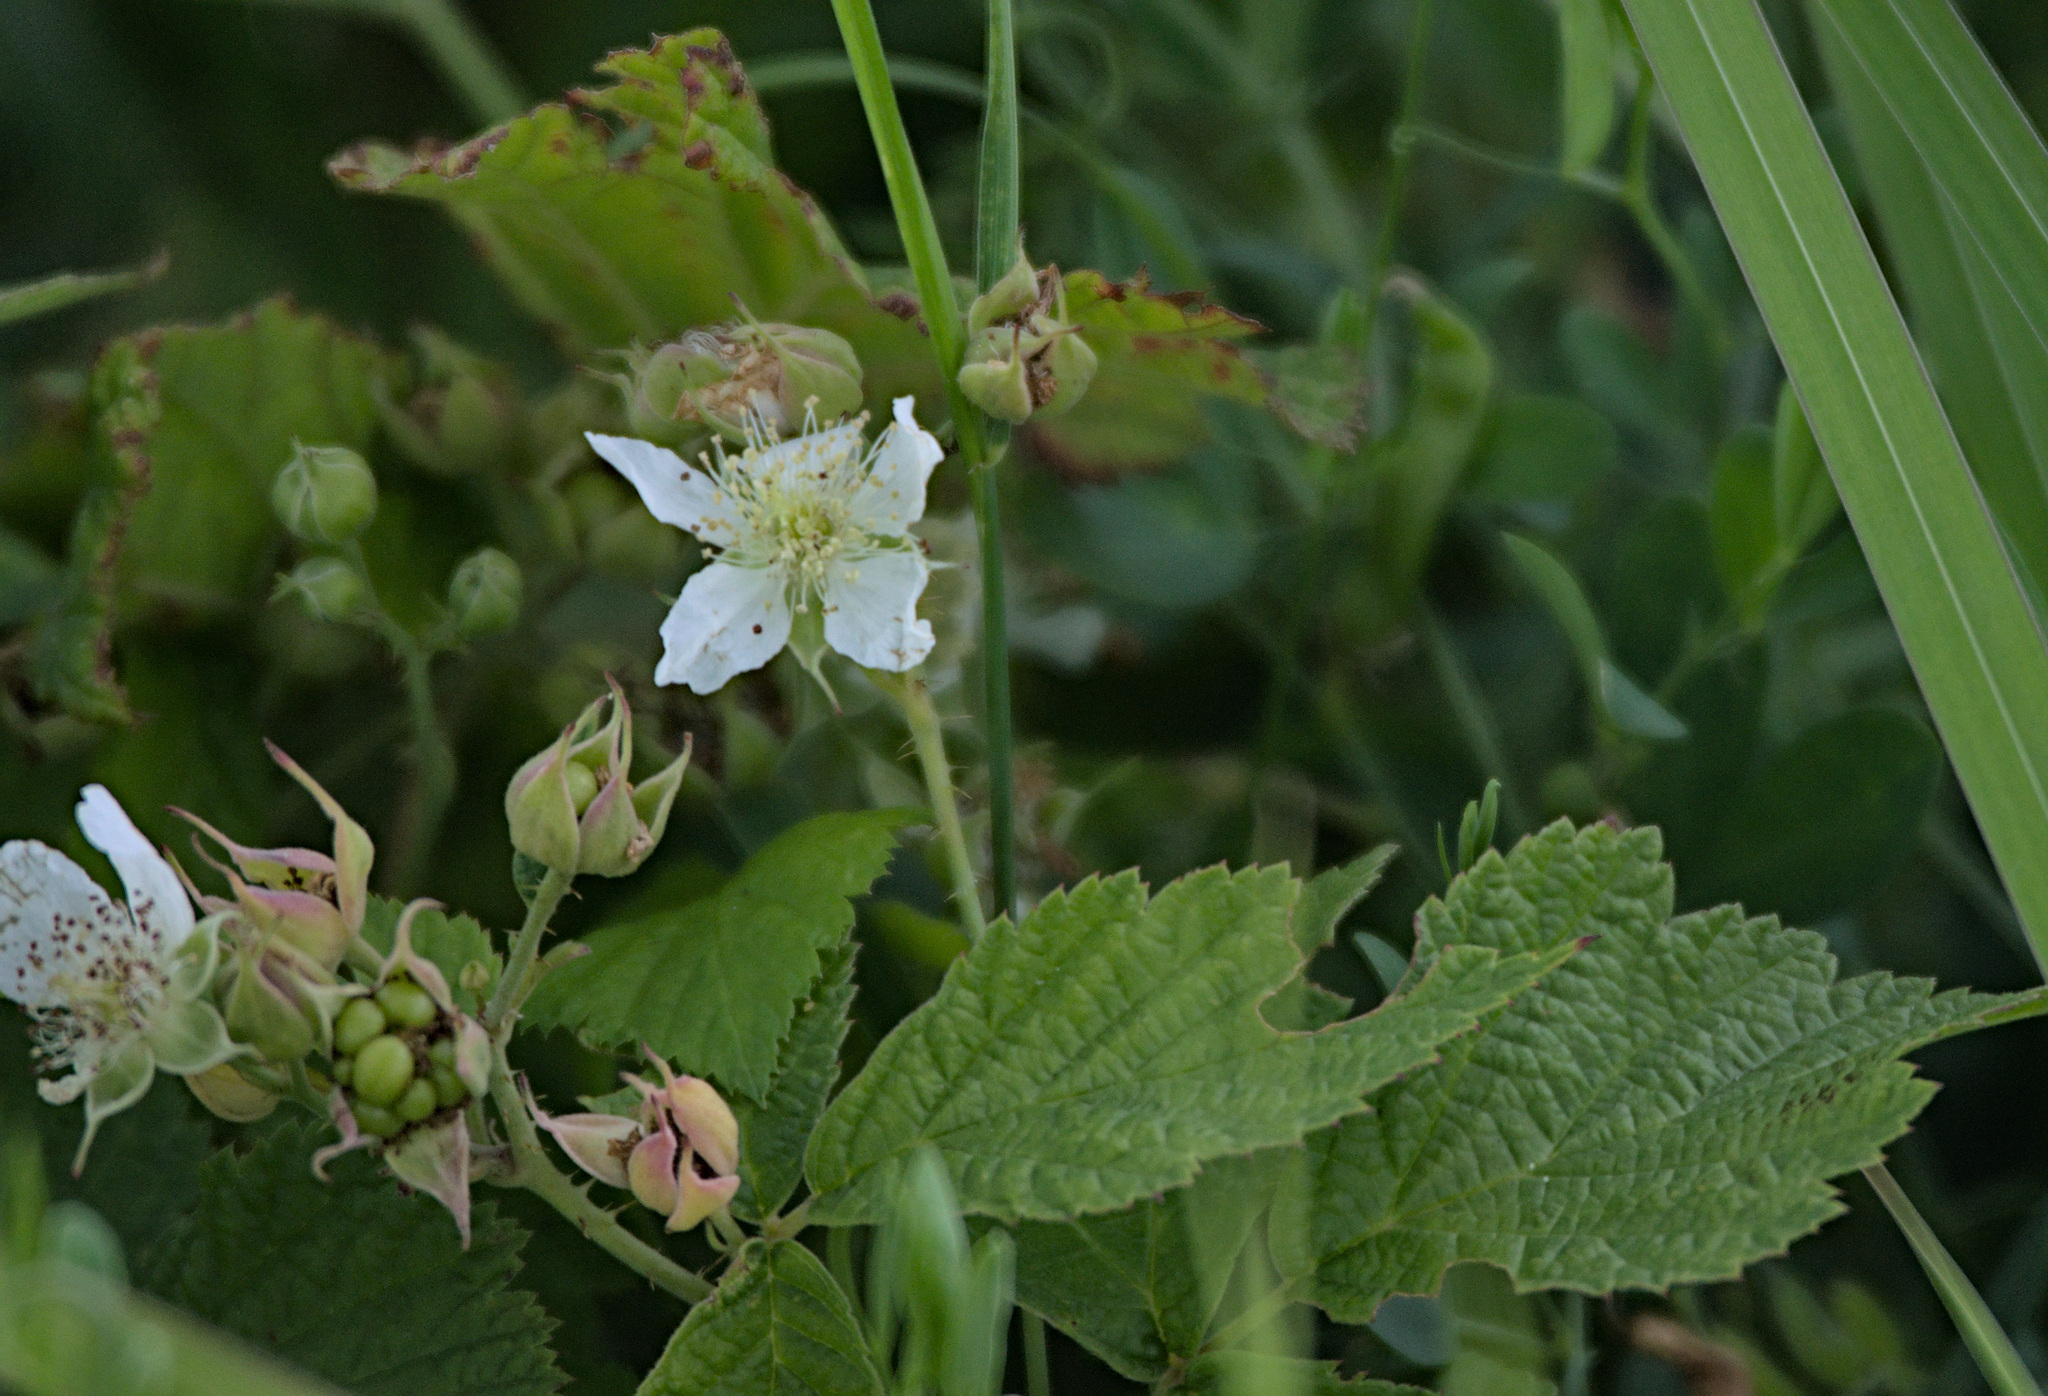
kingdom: Plantae
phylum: Tracheophyta
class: Magnoliopsida
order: Rosales
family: Rosaceae
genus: Rubus
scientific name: Rubus caesius
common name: Dewberry
